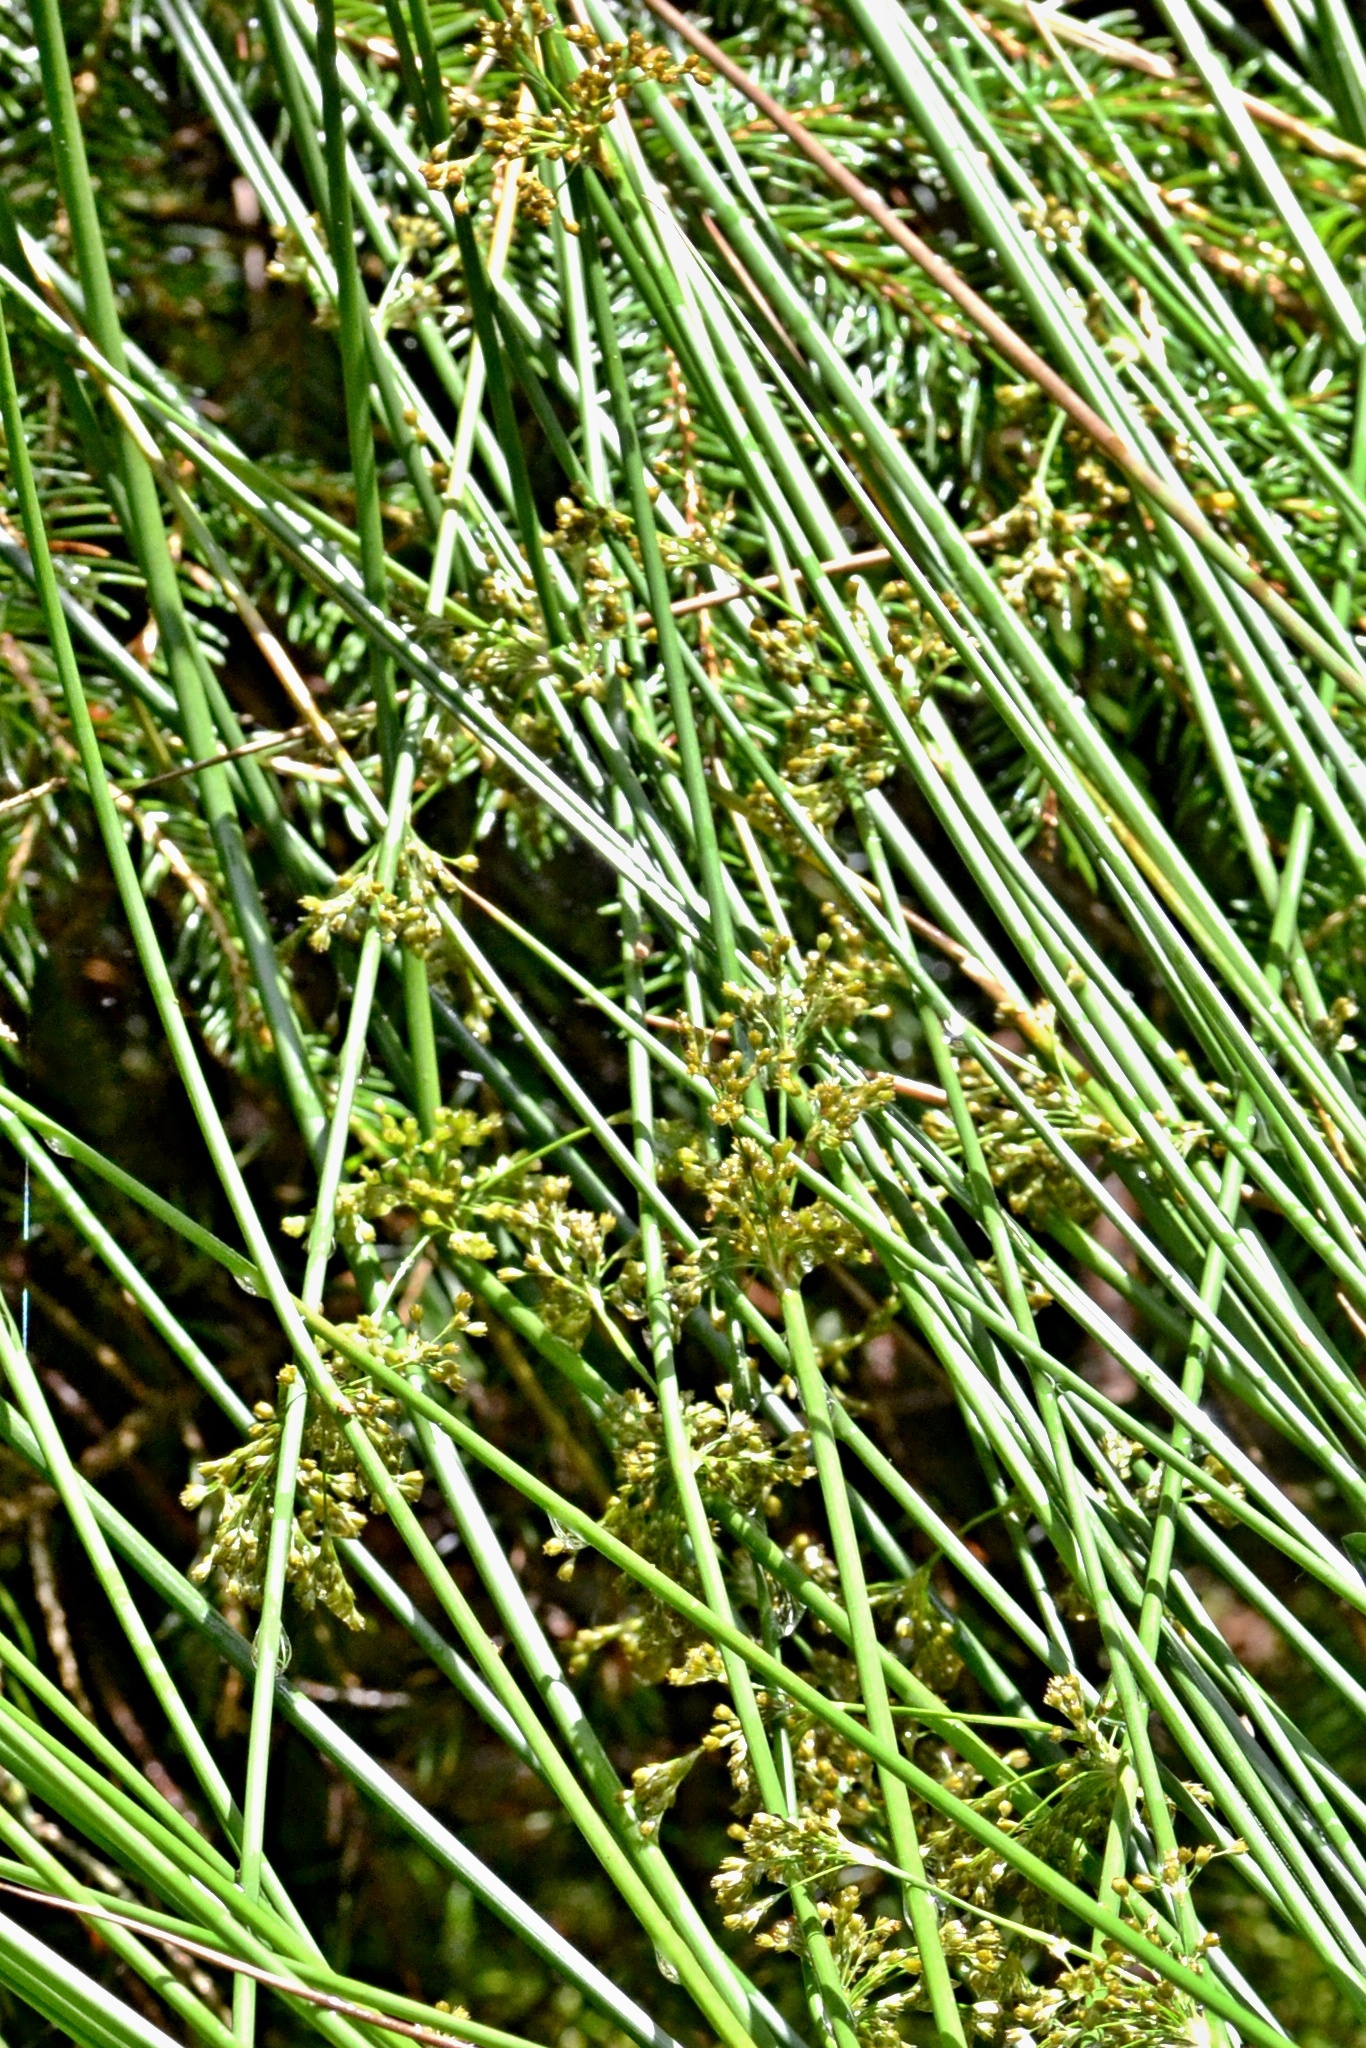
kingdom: Plantae
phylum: Tracheophyta
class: Liliopsida
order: Poales
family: Juncaceae
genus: Juncus
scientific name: Juncus effusus
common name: Soft rush
